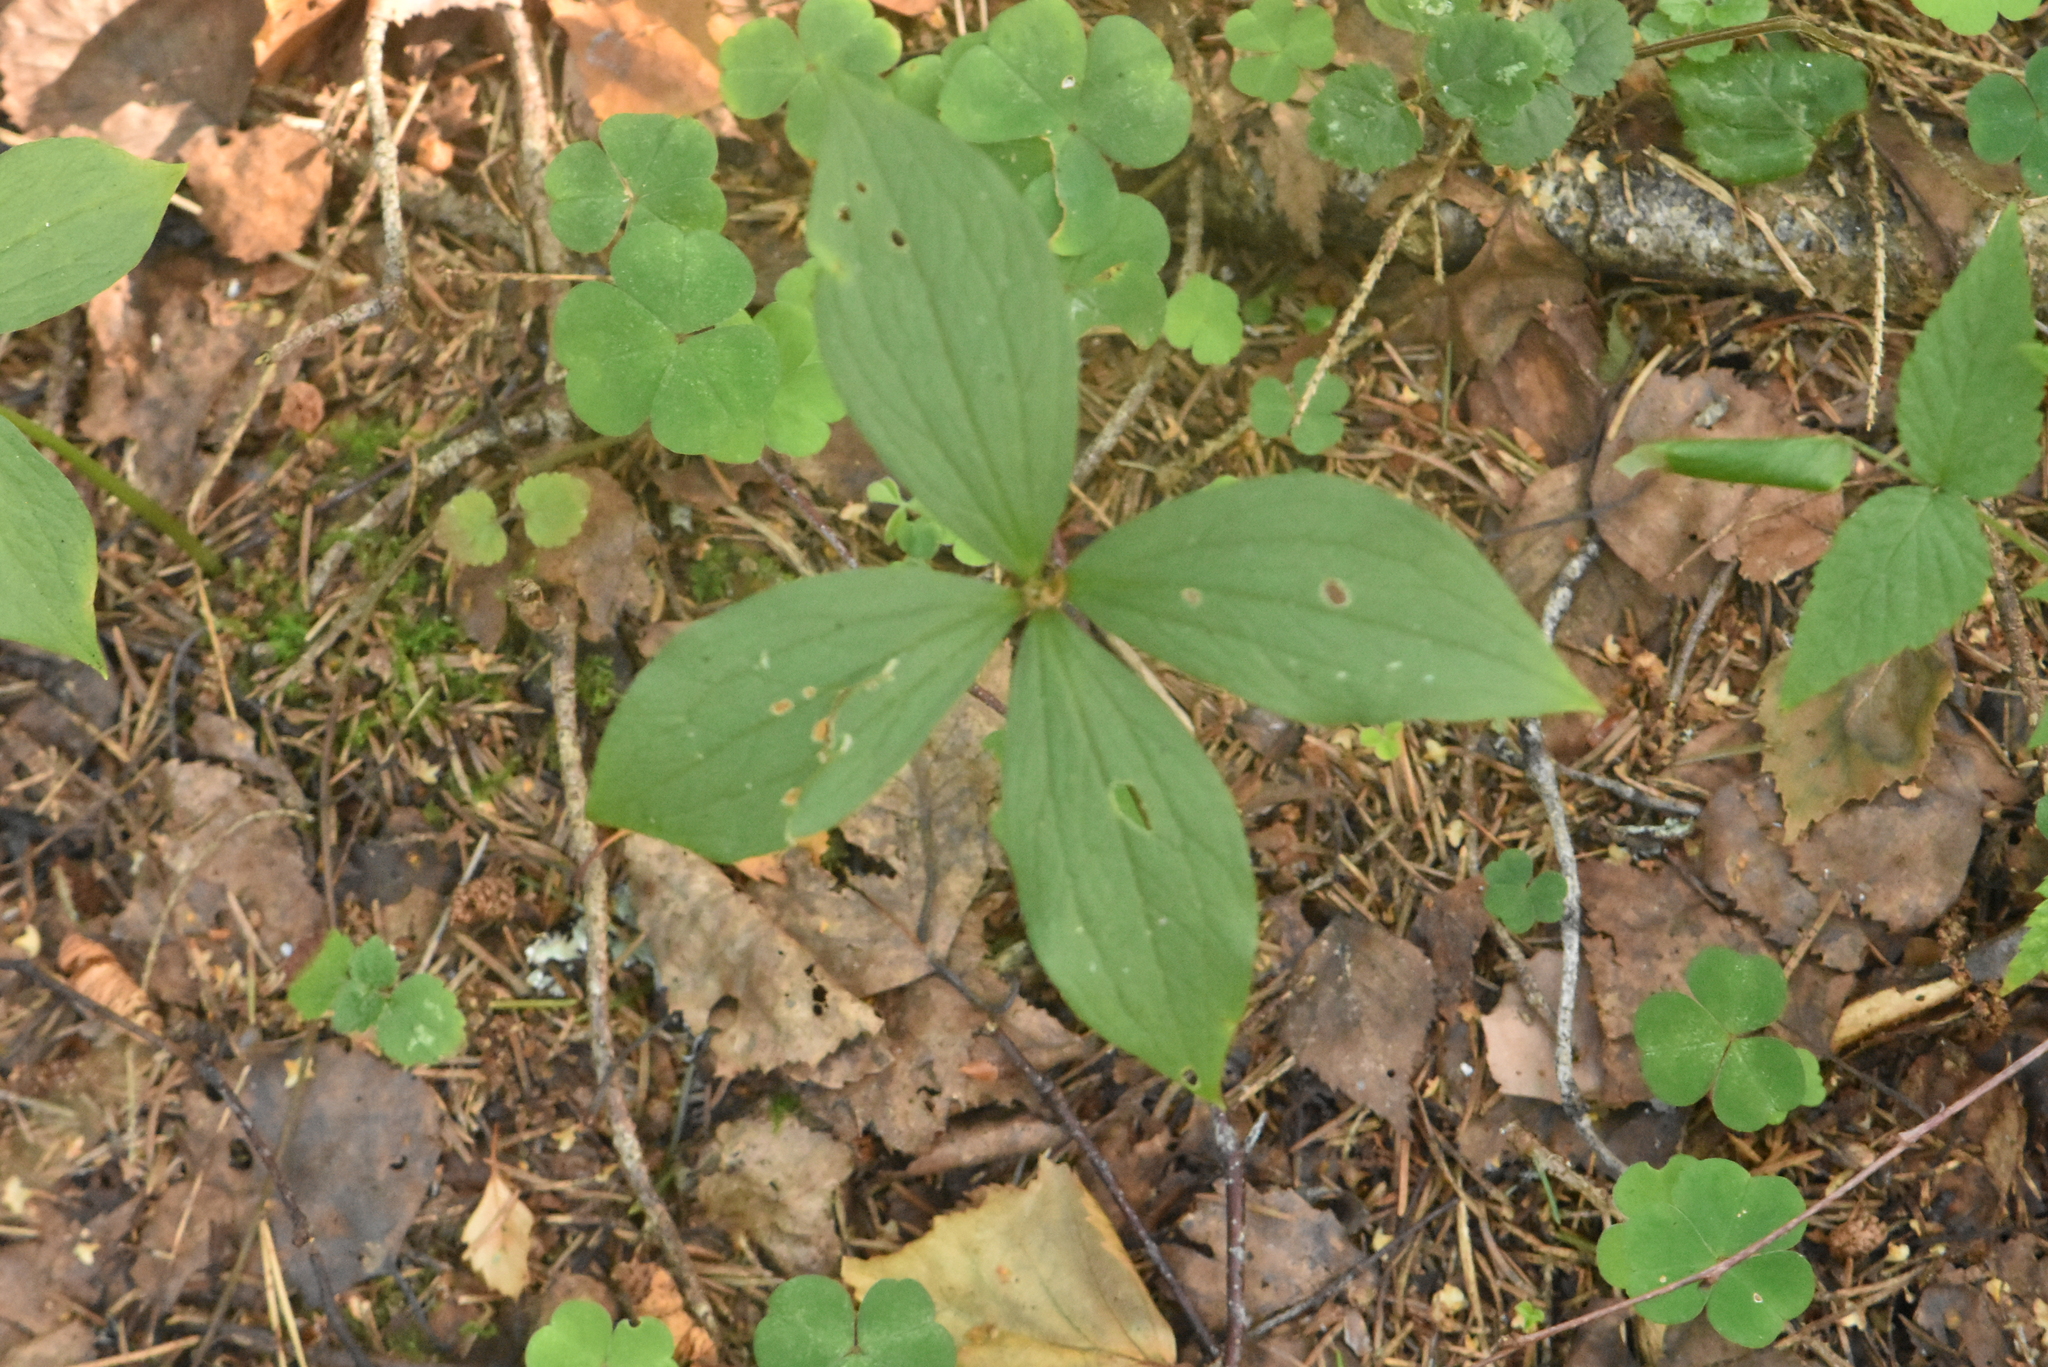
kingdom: Plantae
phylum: Tracheophyta
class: Liliopsida
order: Liliales
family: Melanthiaceae
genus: Paris
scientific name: Paris quadrifolia
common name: Herb-paris
